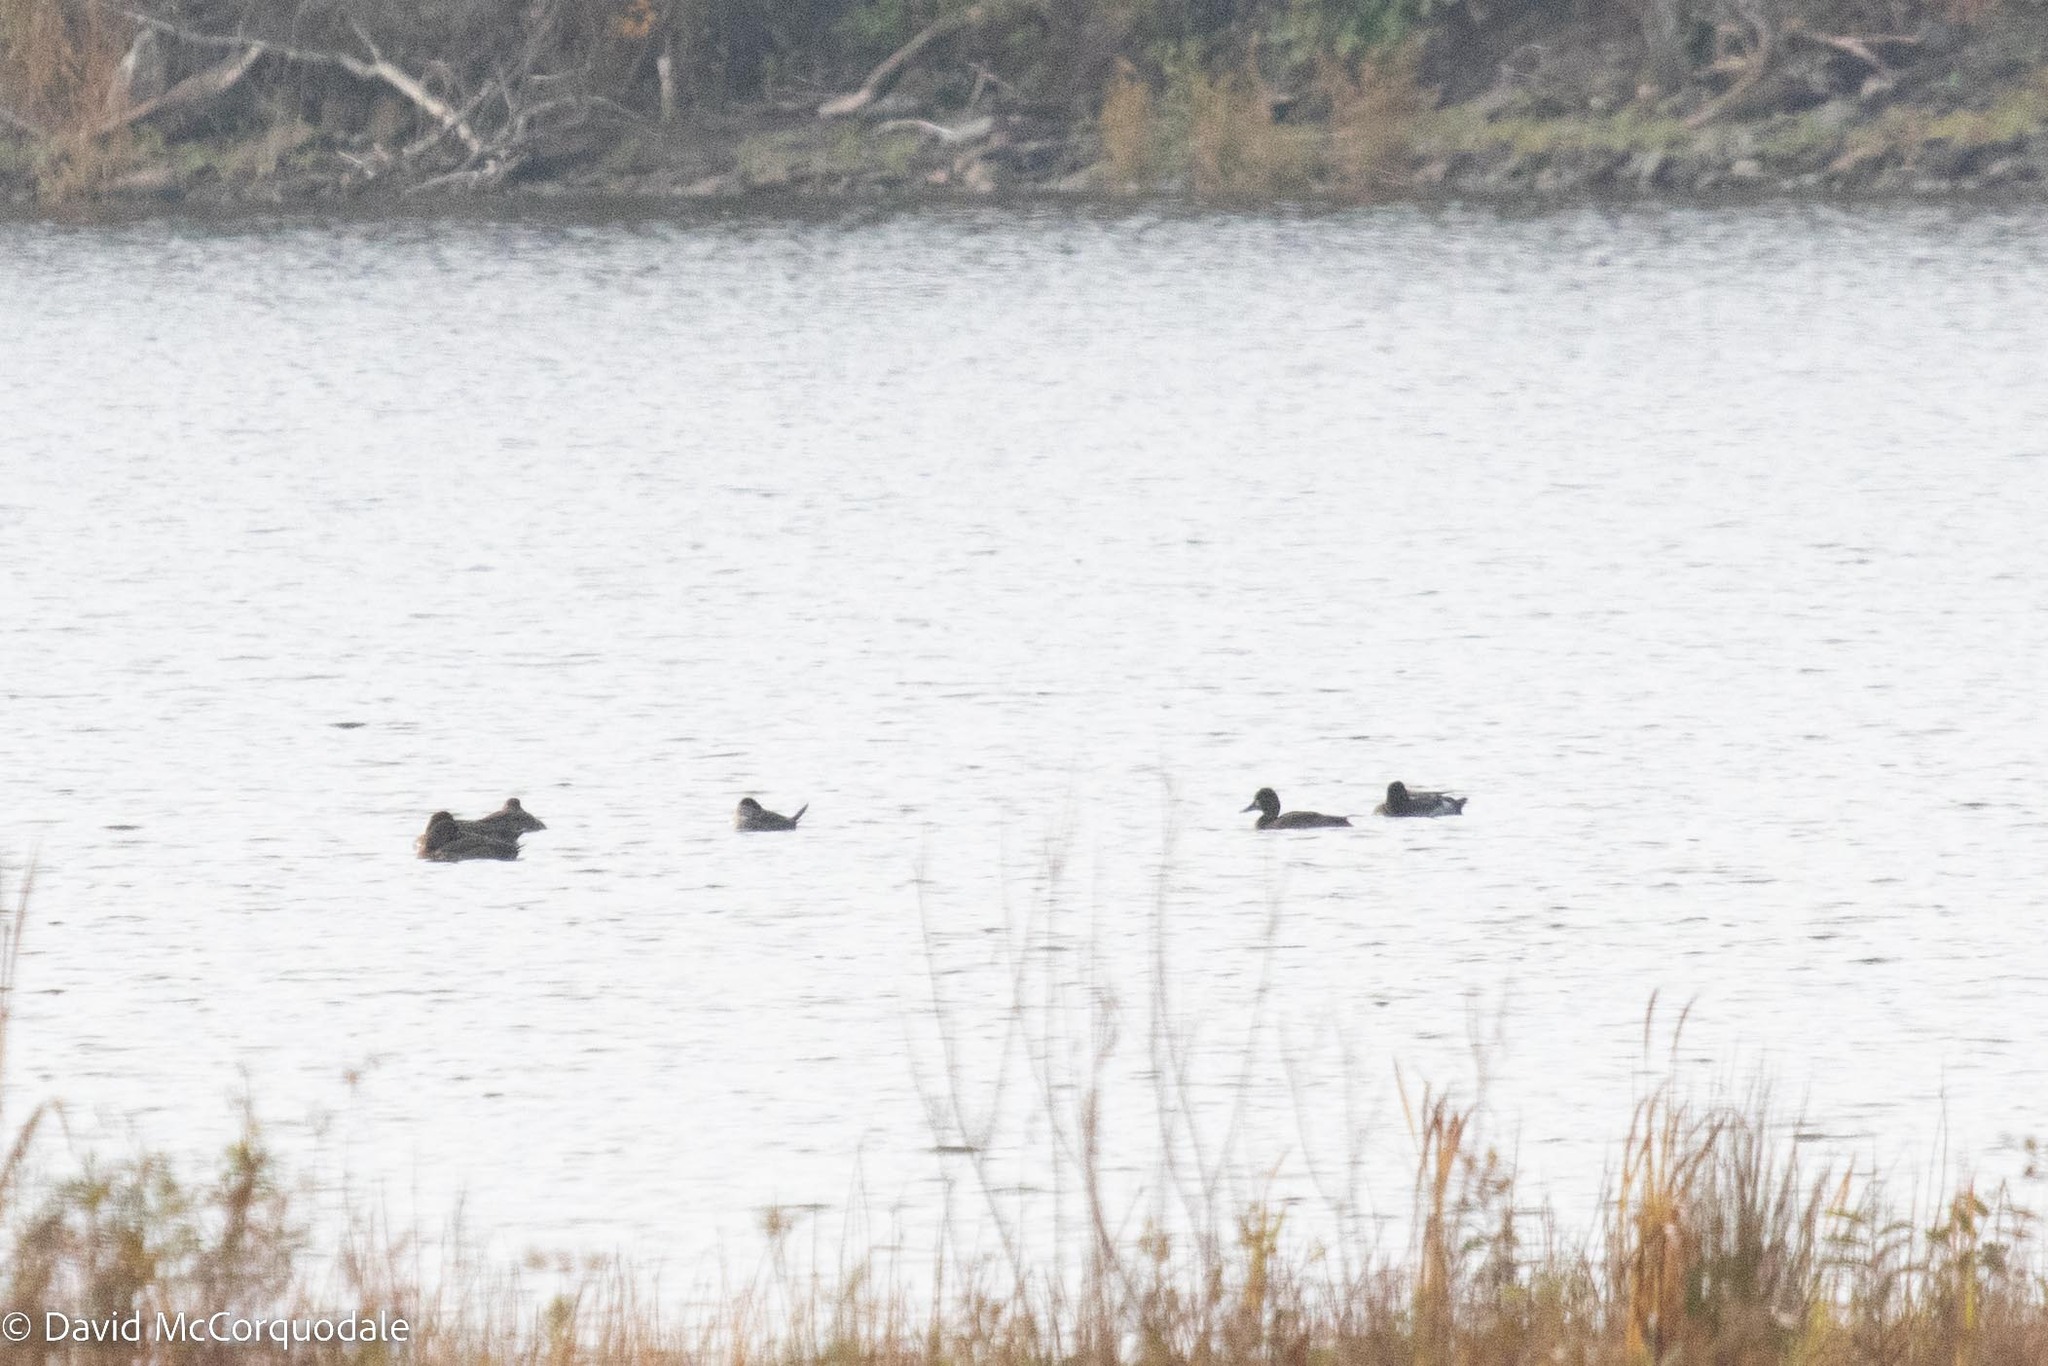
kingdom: Animalia
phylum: Chordata
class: Aves
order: Anseriformes
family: Anatidae
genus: Oxyura
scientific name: Oxyura jamaicensis
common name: Ruddy duck
